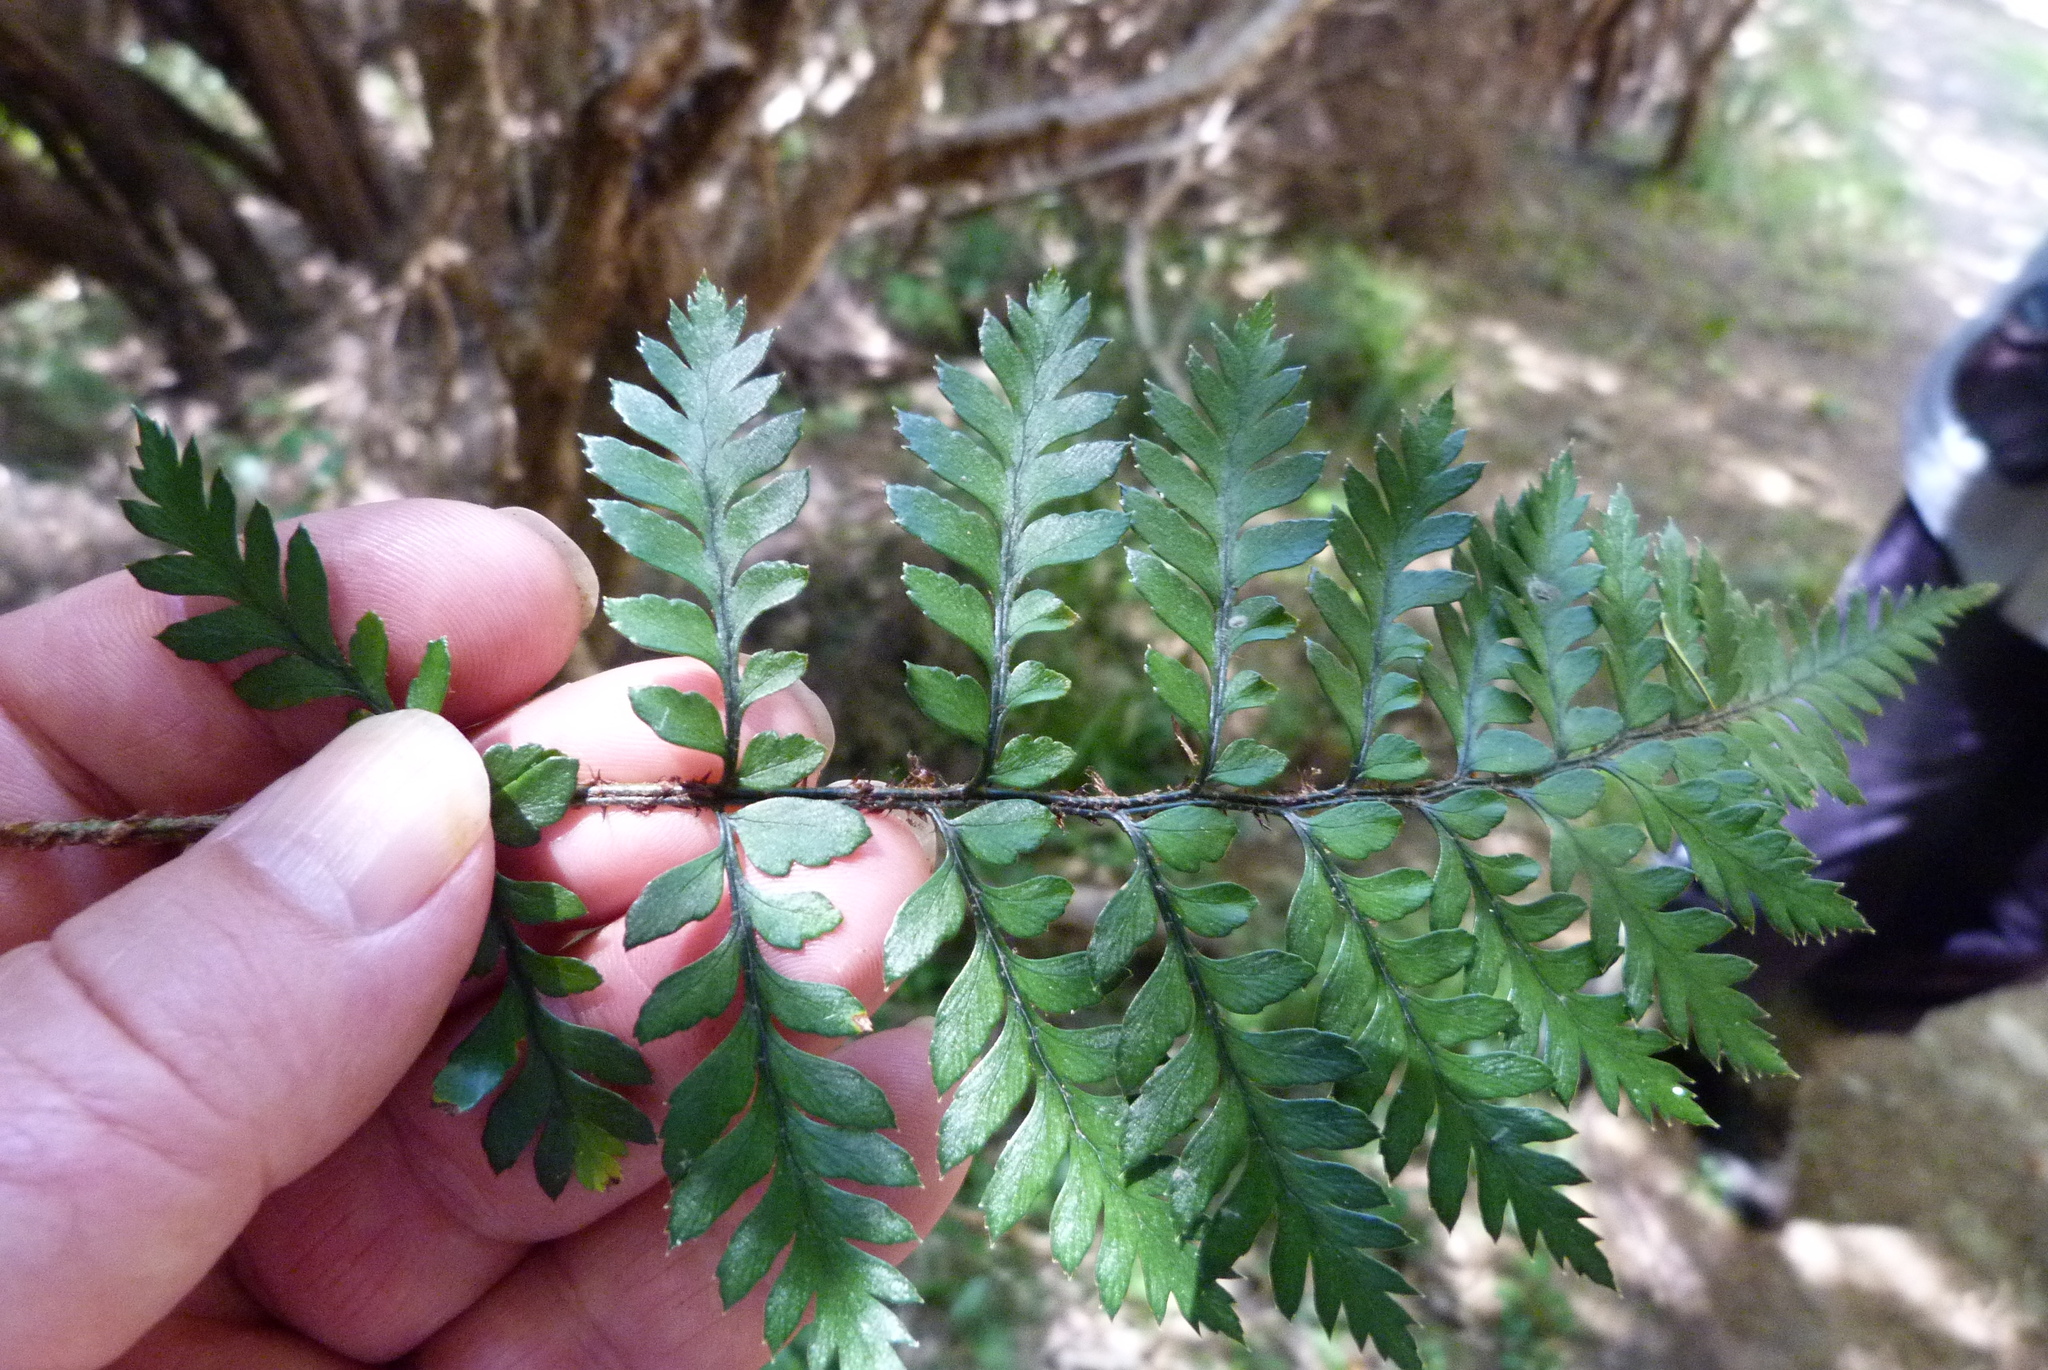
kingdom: Plantae
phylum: Tracheophyta
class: Polypodiopsida
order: Polypodiales
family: Dryopteridaceae
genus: Polystichum
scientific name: Polystichum neozelandicum
